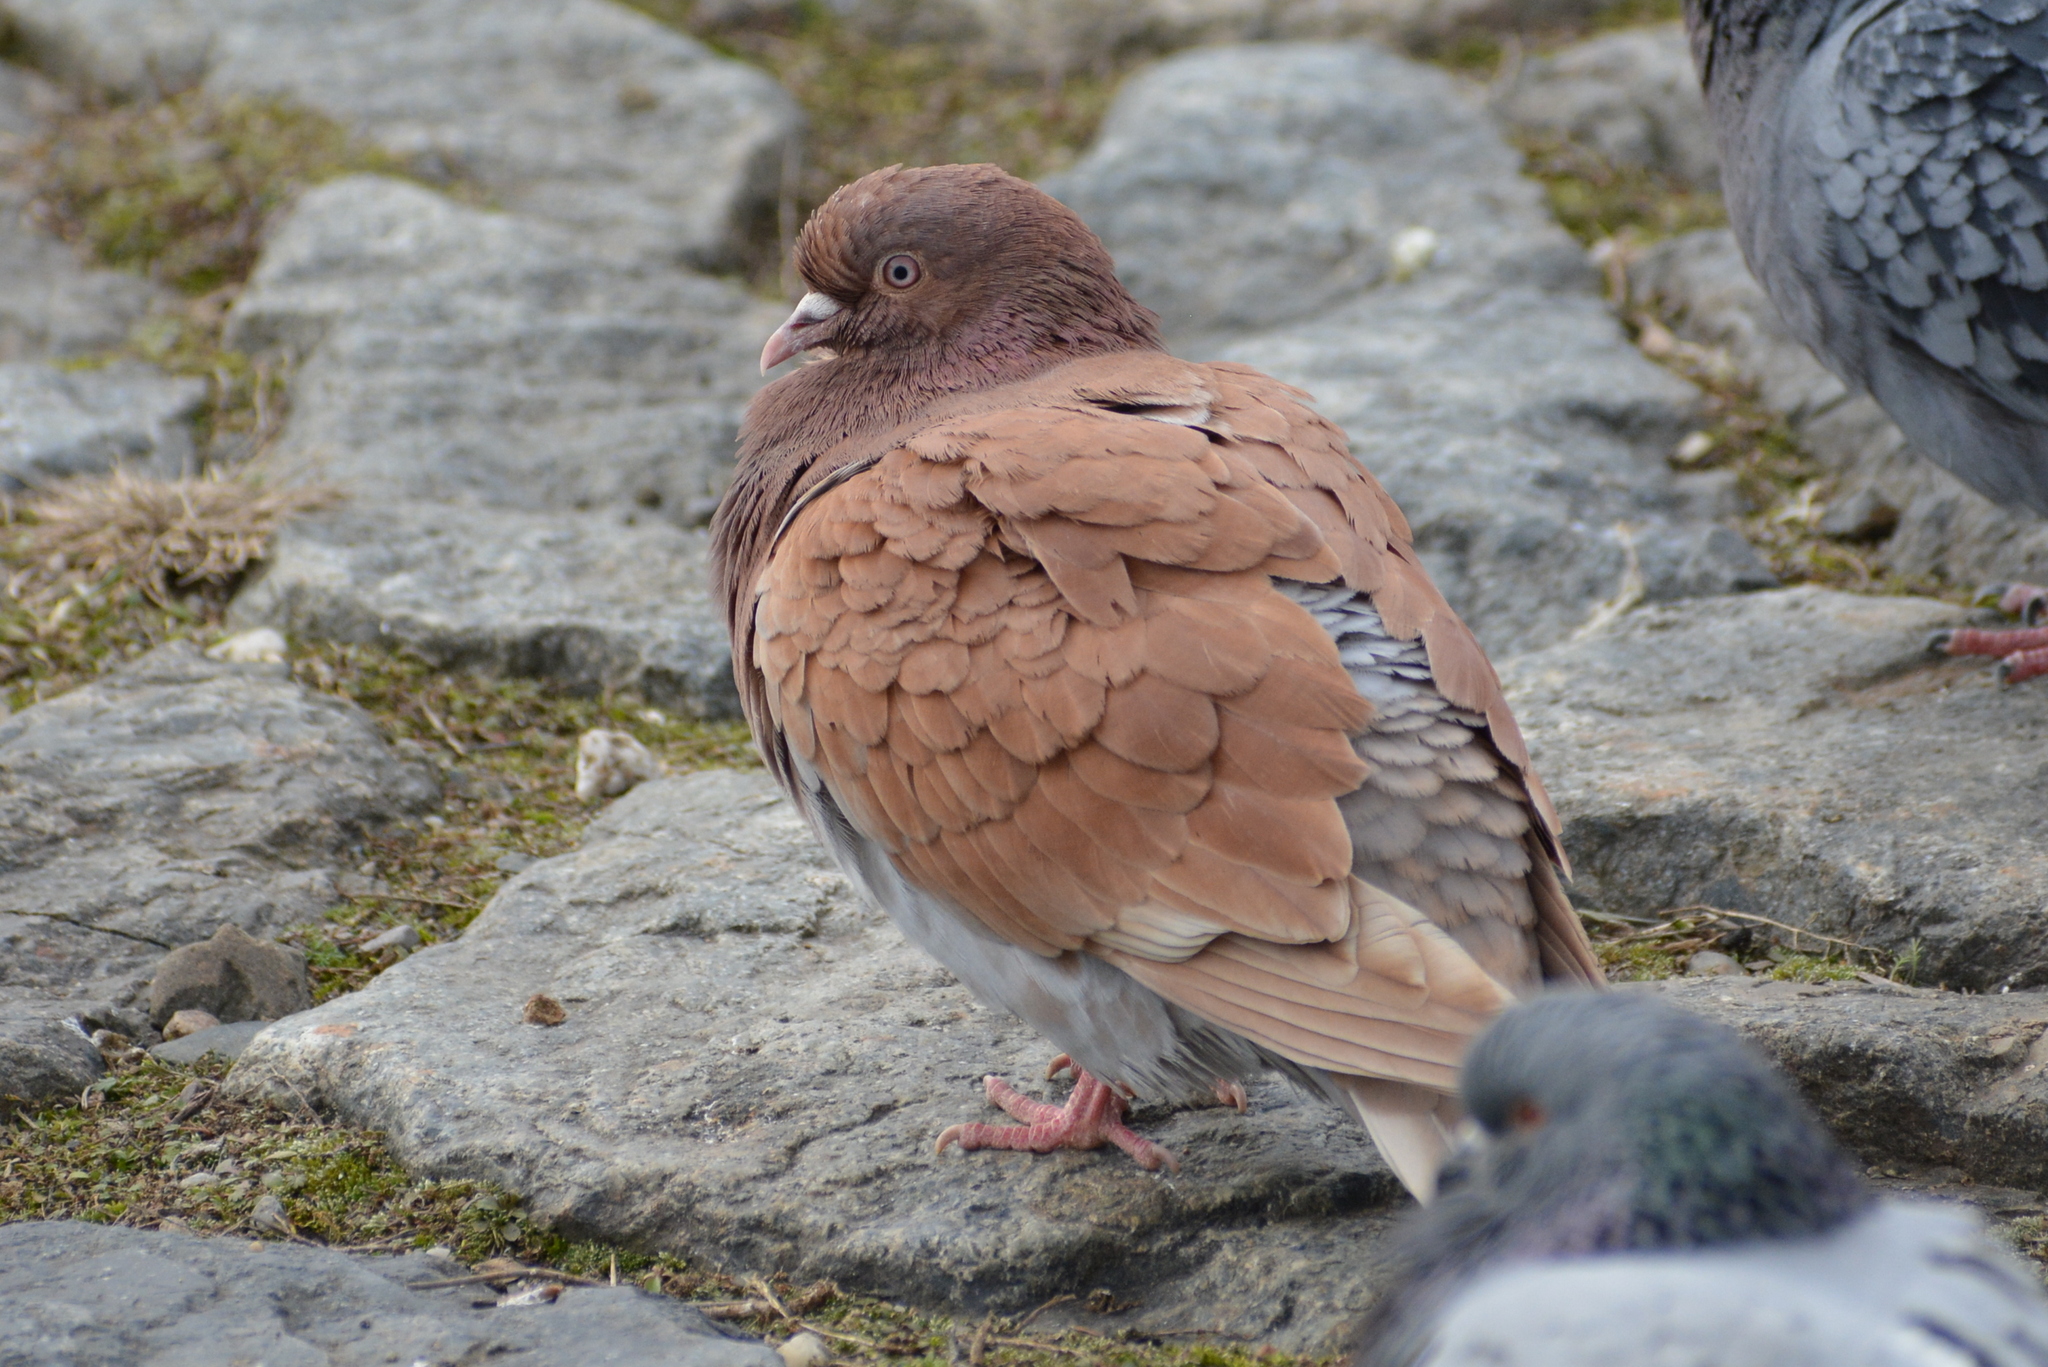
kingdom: Animalia
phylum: Chordata
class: Aves
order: Columbiformes
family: Columbidae
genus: Columba
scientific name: Columba livia
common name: Rock pigeon
